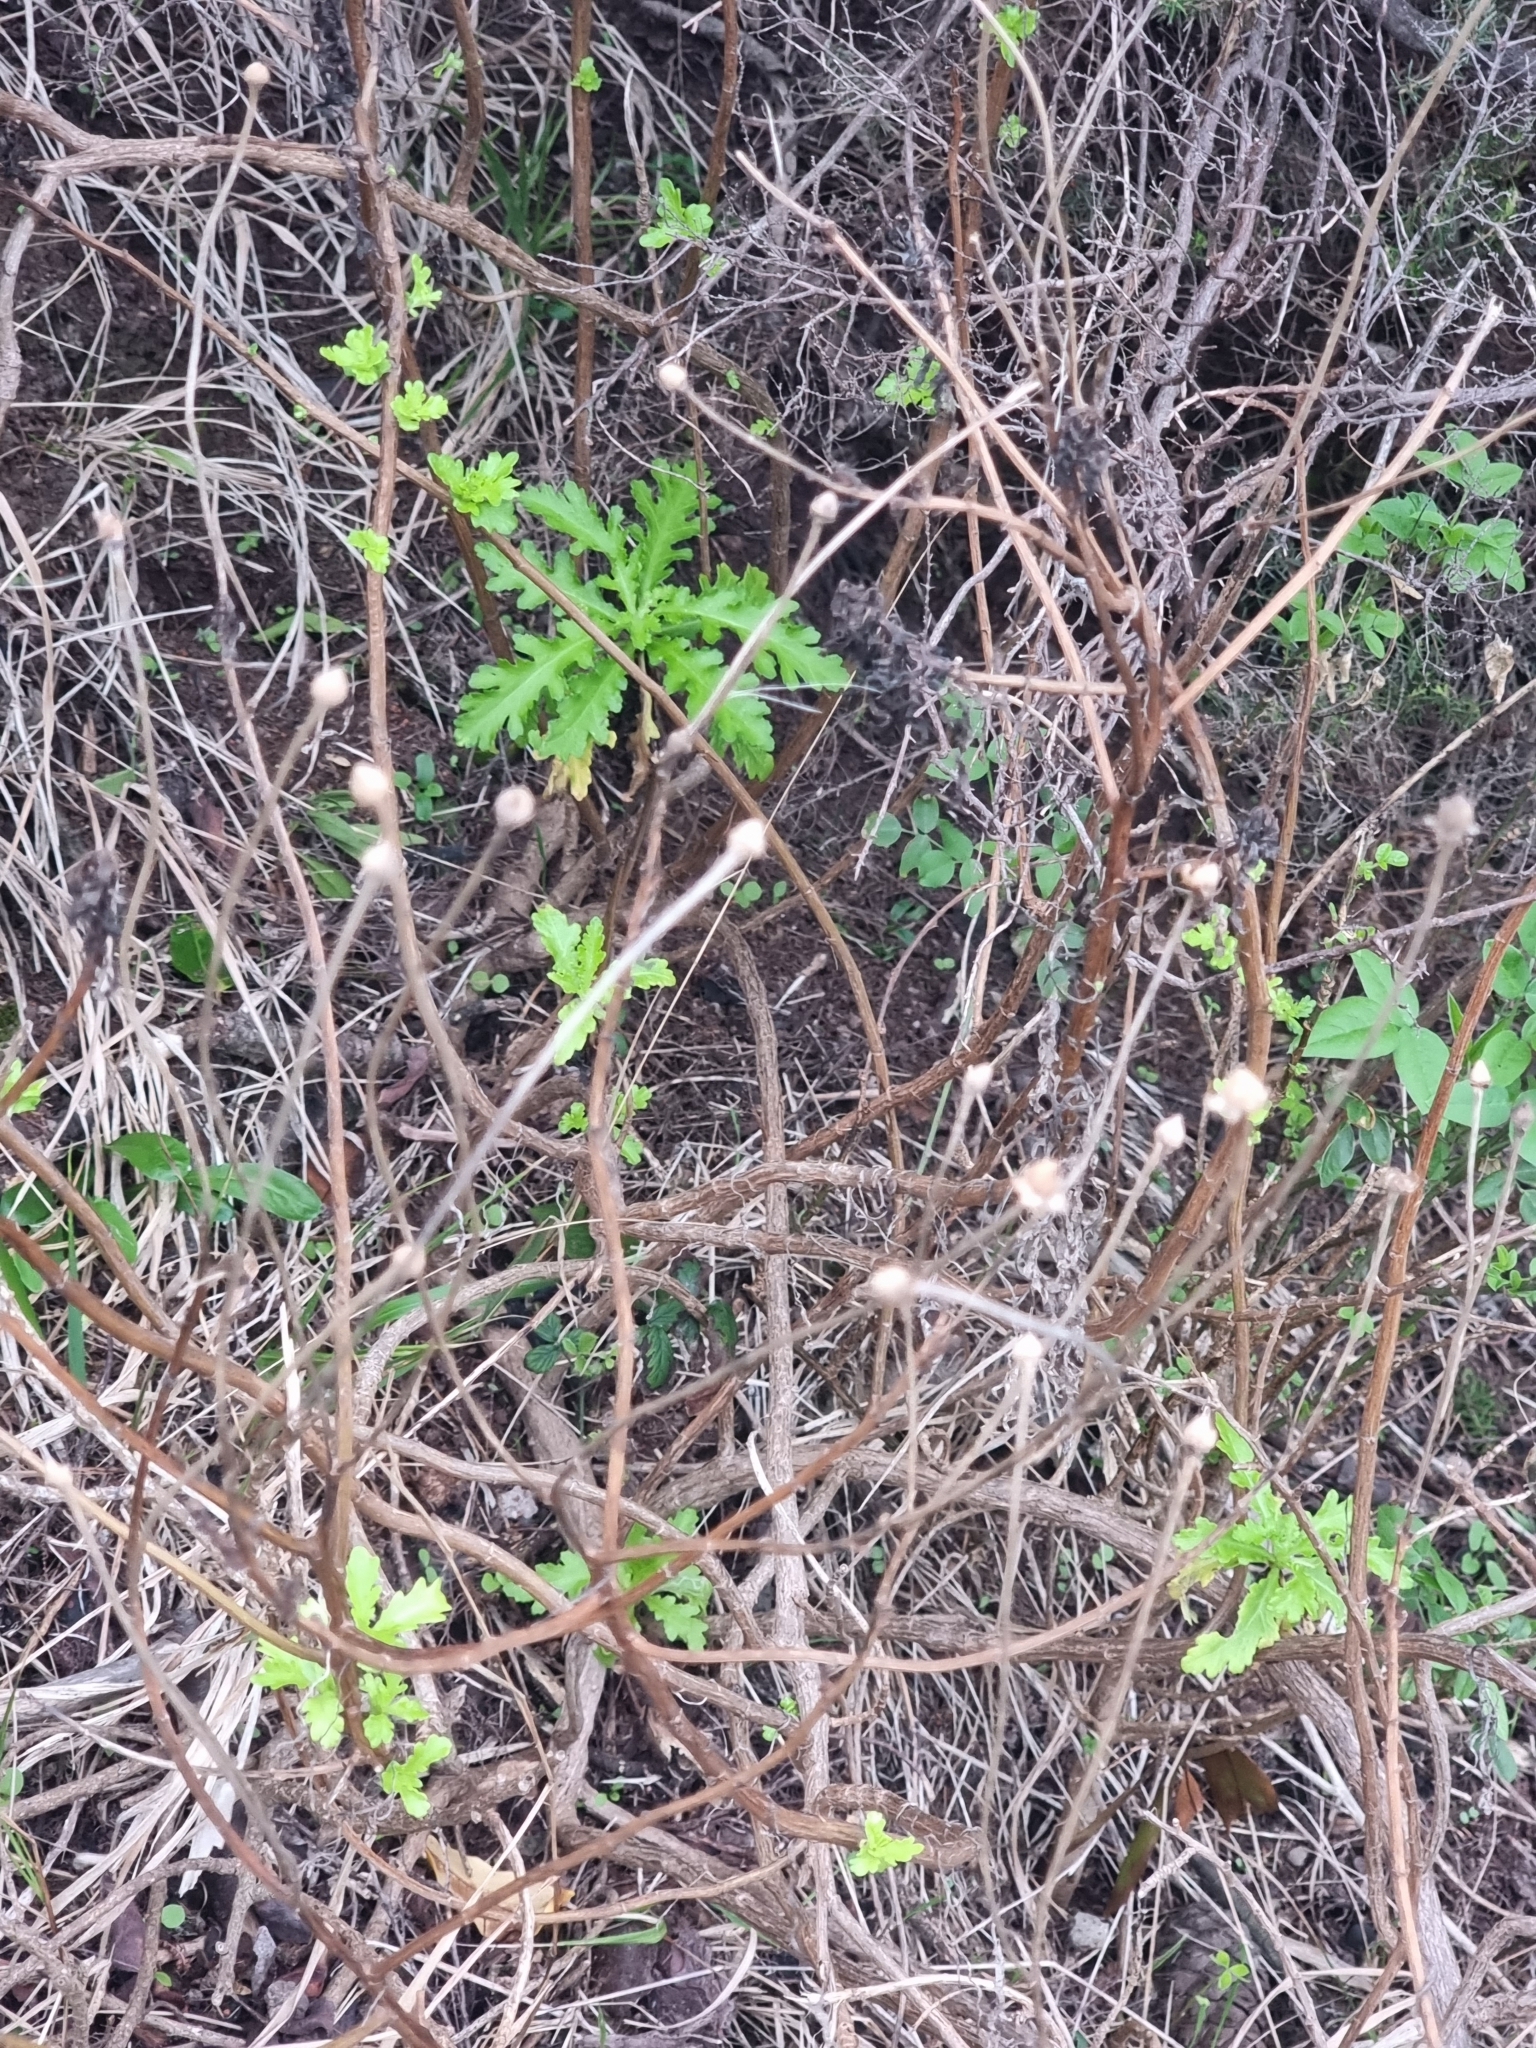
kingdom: Plantae
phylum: Tracheophyta
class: Magnoliopsida
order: Asterales
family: Asteraceae
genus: Argyranthemum
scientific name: Argyranthemum pinnatifidum
